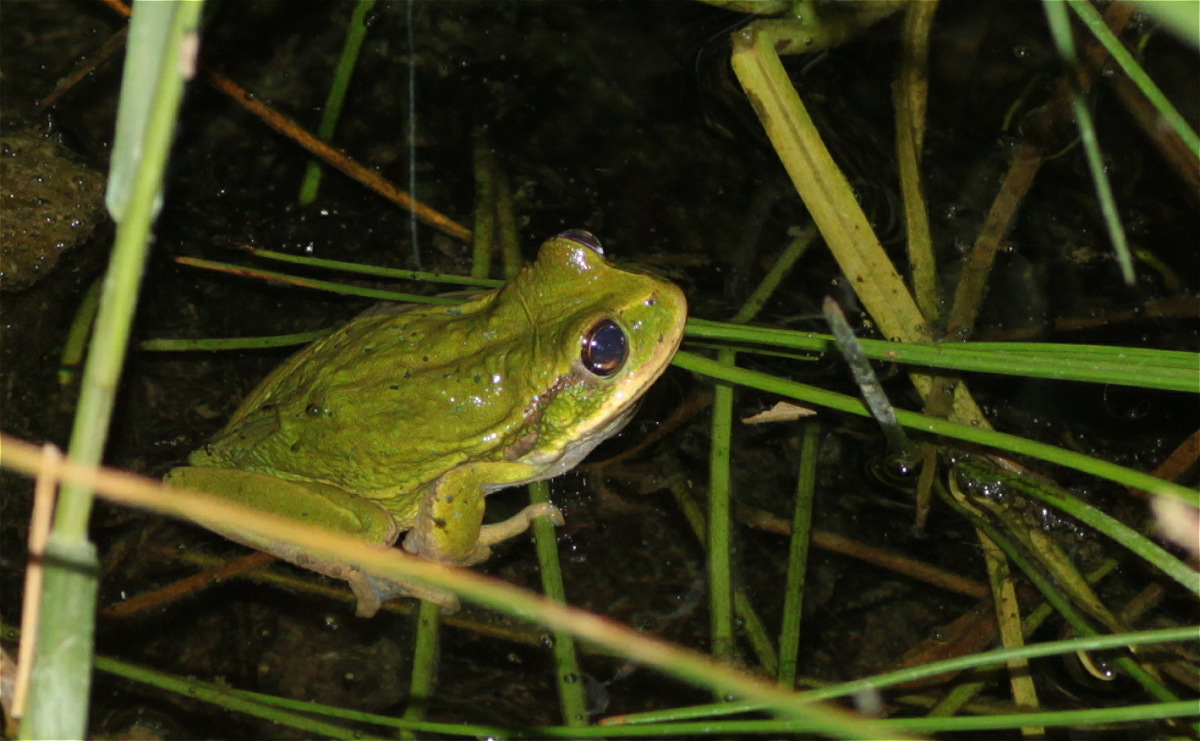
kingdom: Animalia
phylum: Chordata
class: Amphibia
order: Anura
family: Hemiphractidae
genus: Gastrotheca
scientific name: Gastrotheca cuencana
